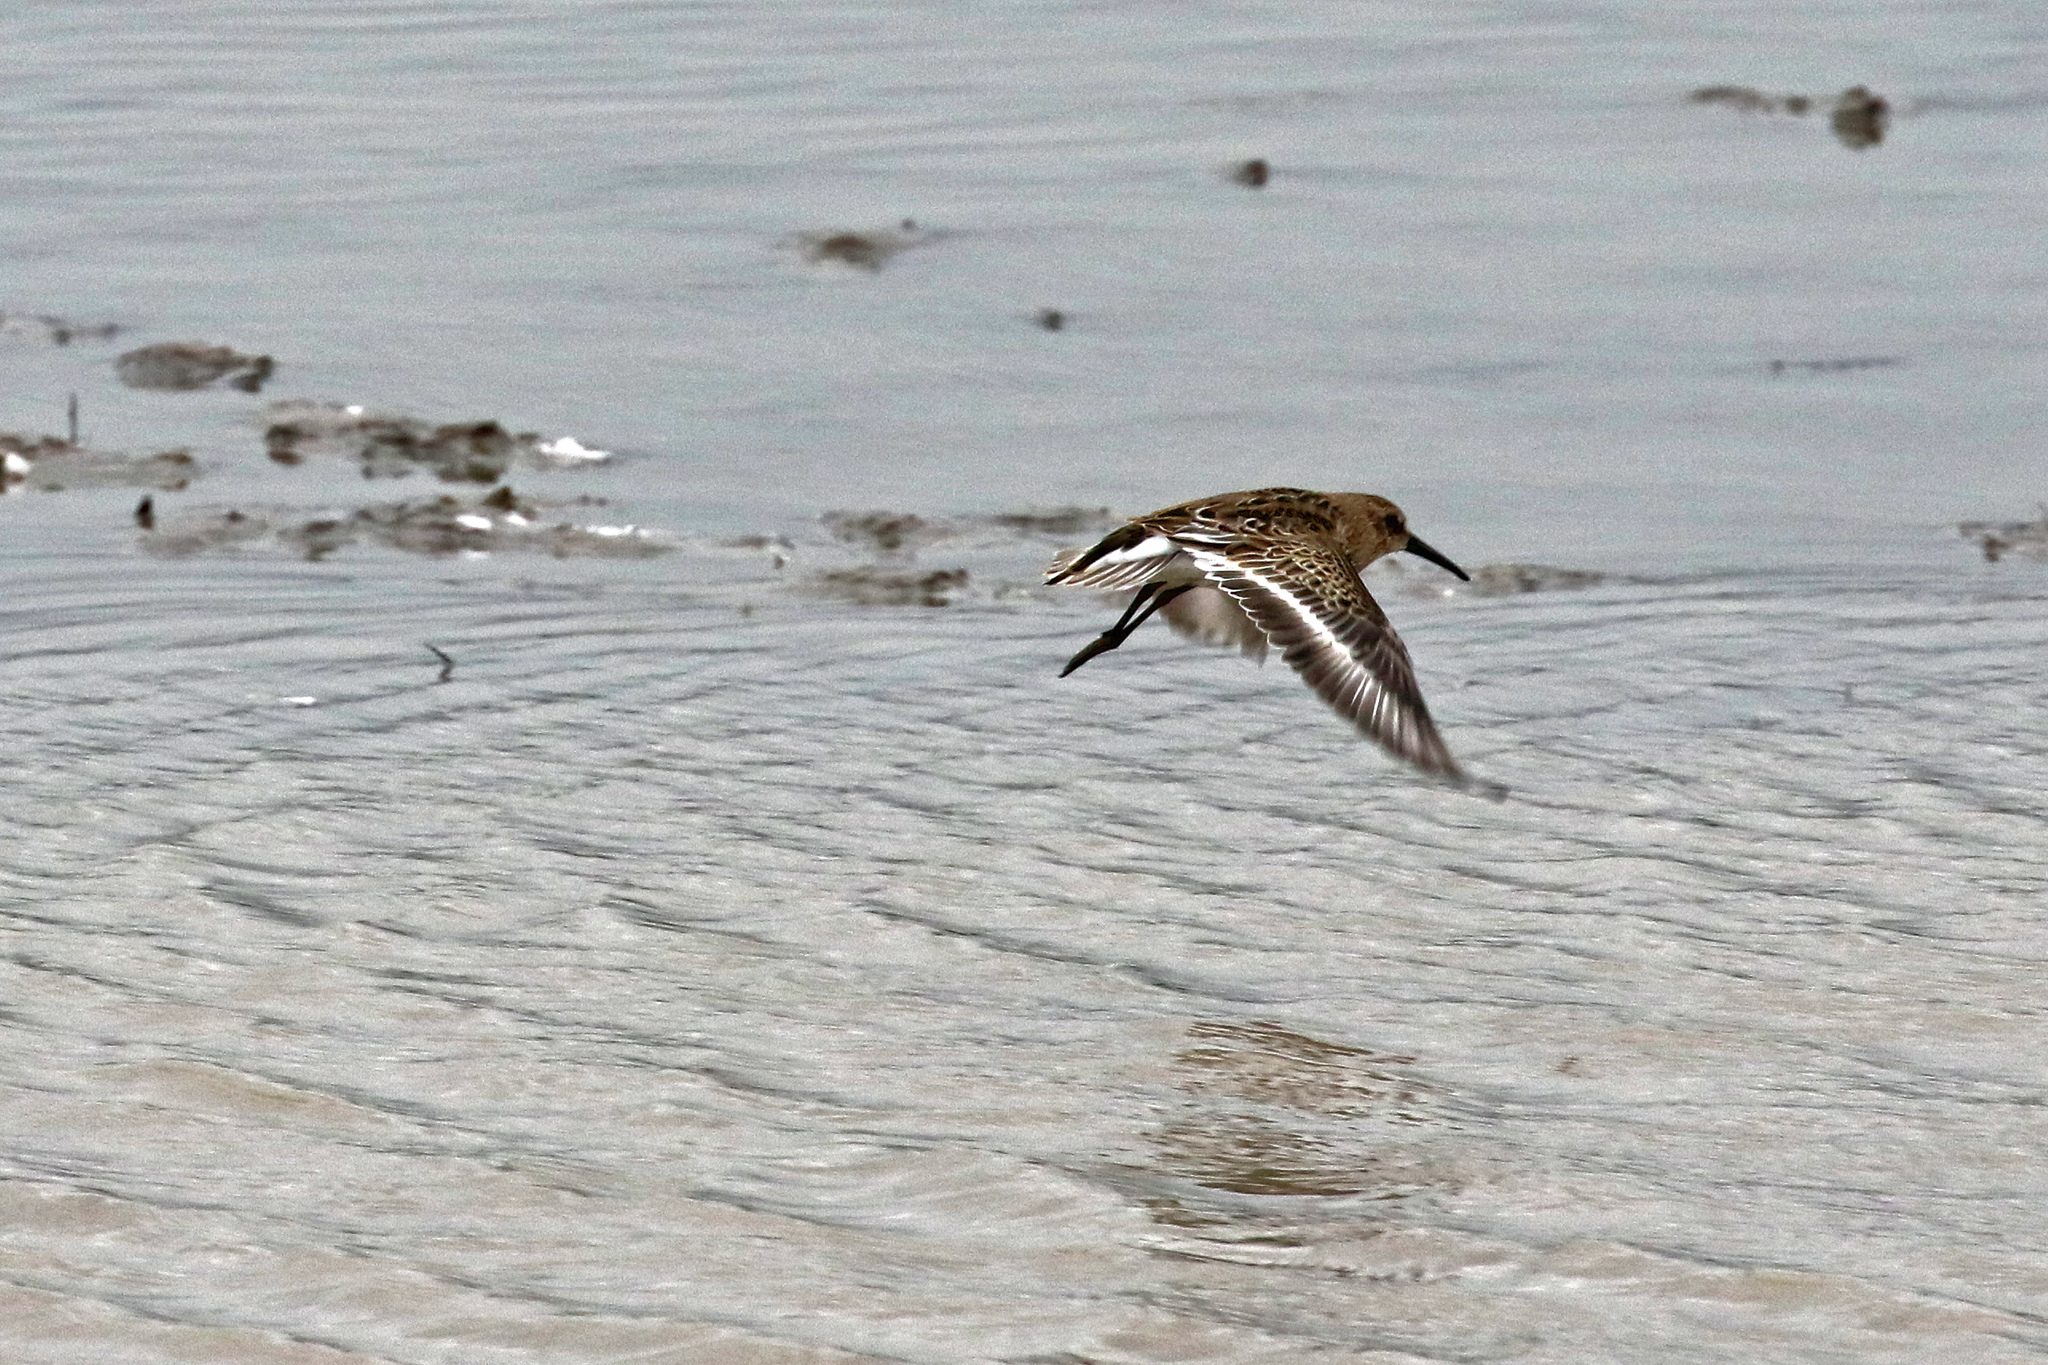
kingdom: Animalia
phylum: Chordata
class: Aves
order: Charadriiformes
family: Scolopacidae
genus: Calidris
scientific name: Calidris alpina
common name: Dunlin
